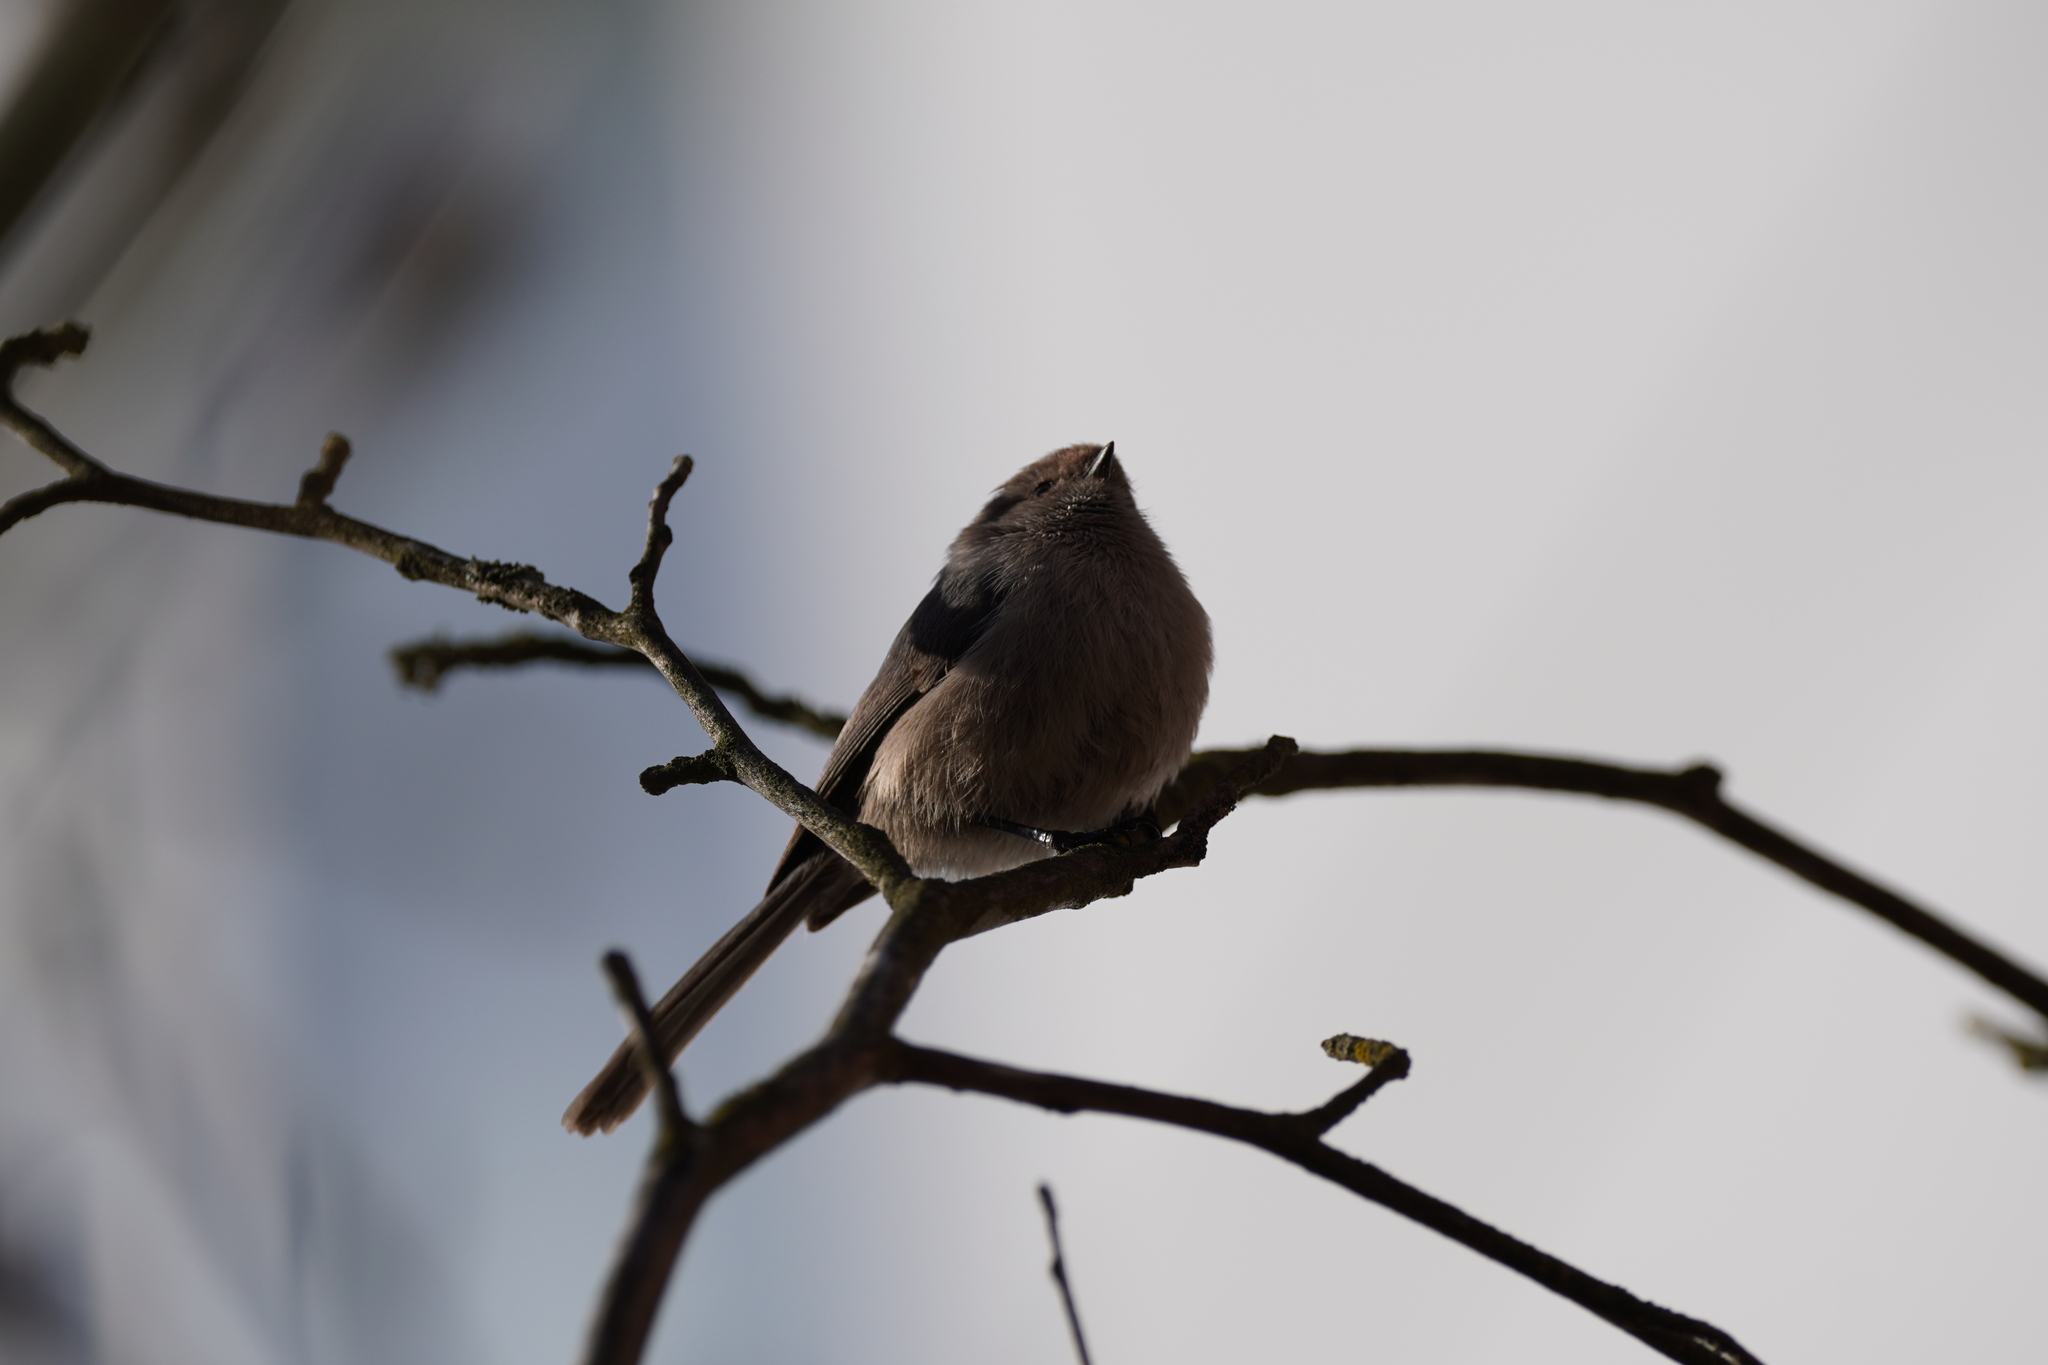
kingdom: Animalia
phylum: Chordata
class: Aves
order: Passeriformes
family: Aegithalidae
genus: Psaltriparus
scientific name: Psaltriparus minimus
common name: American bushtit
